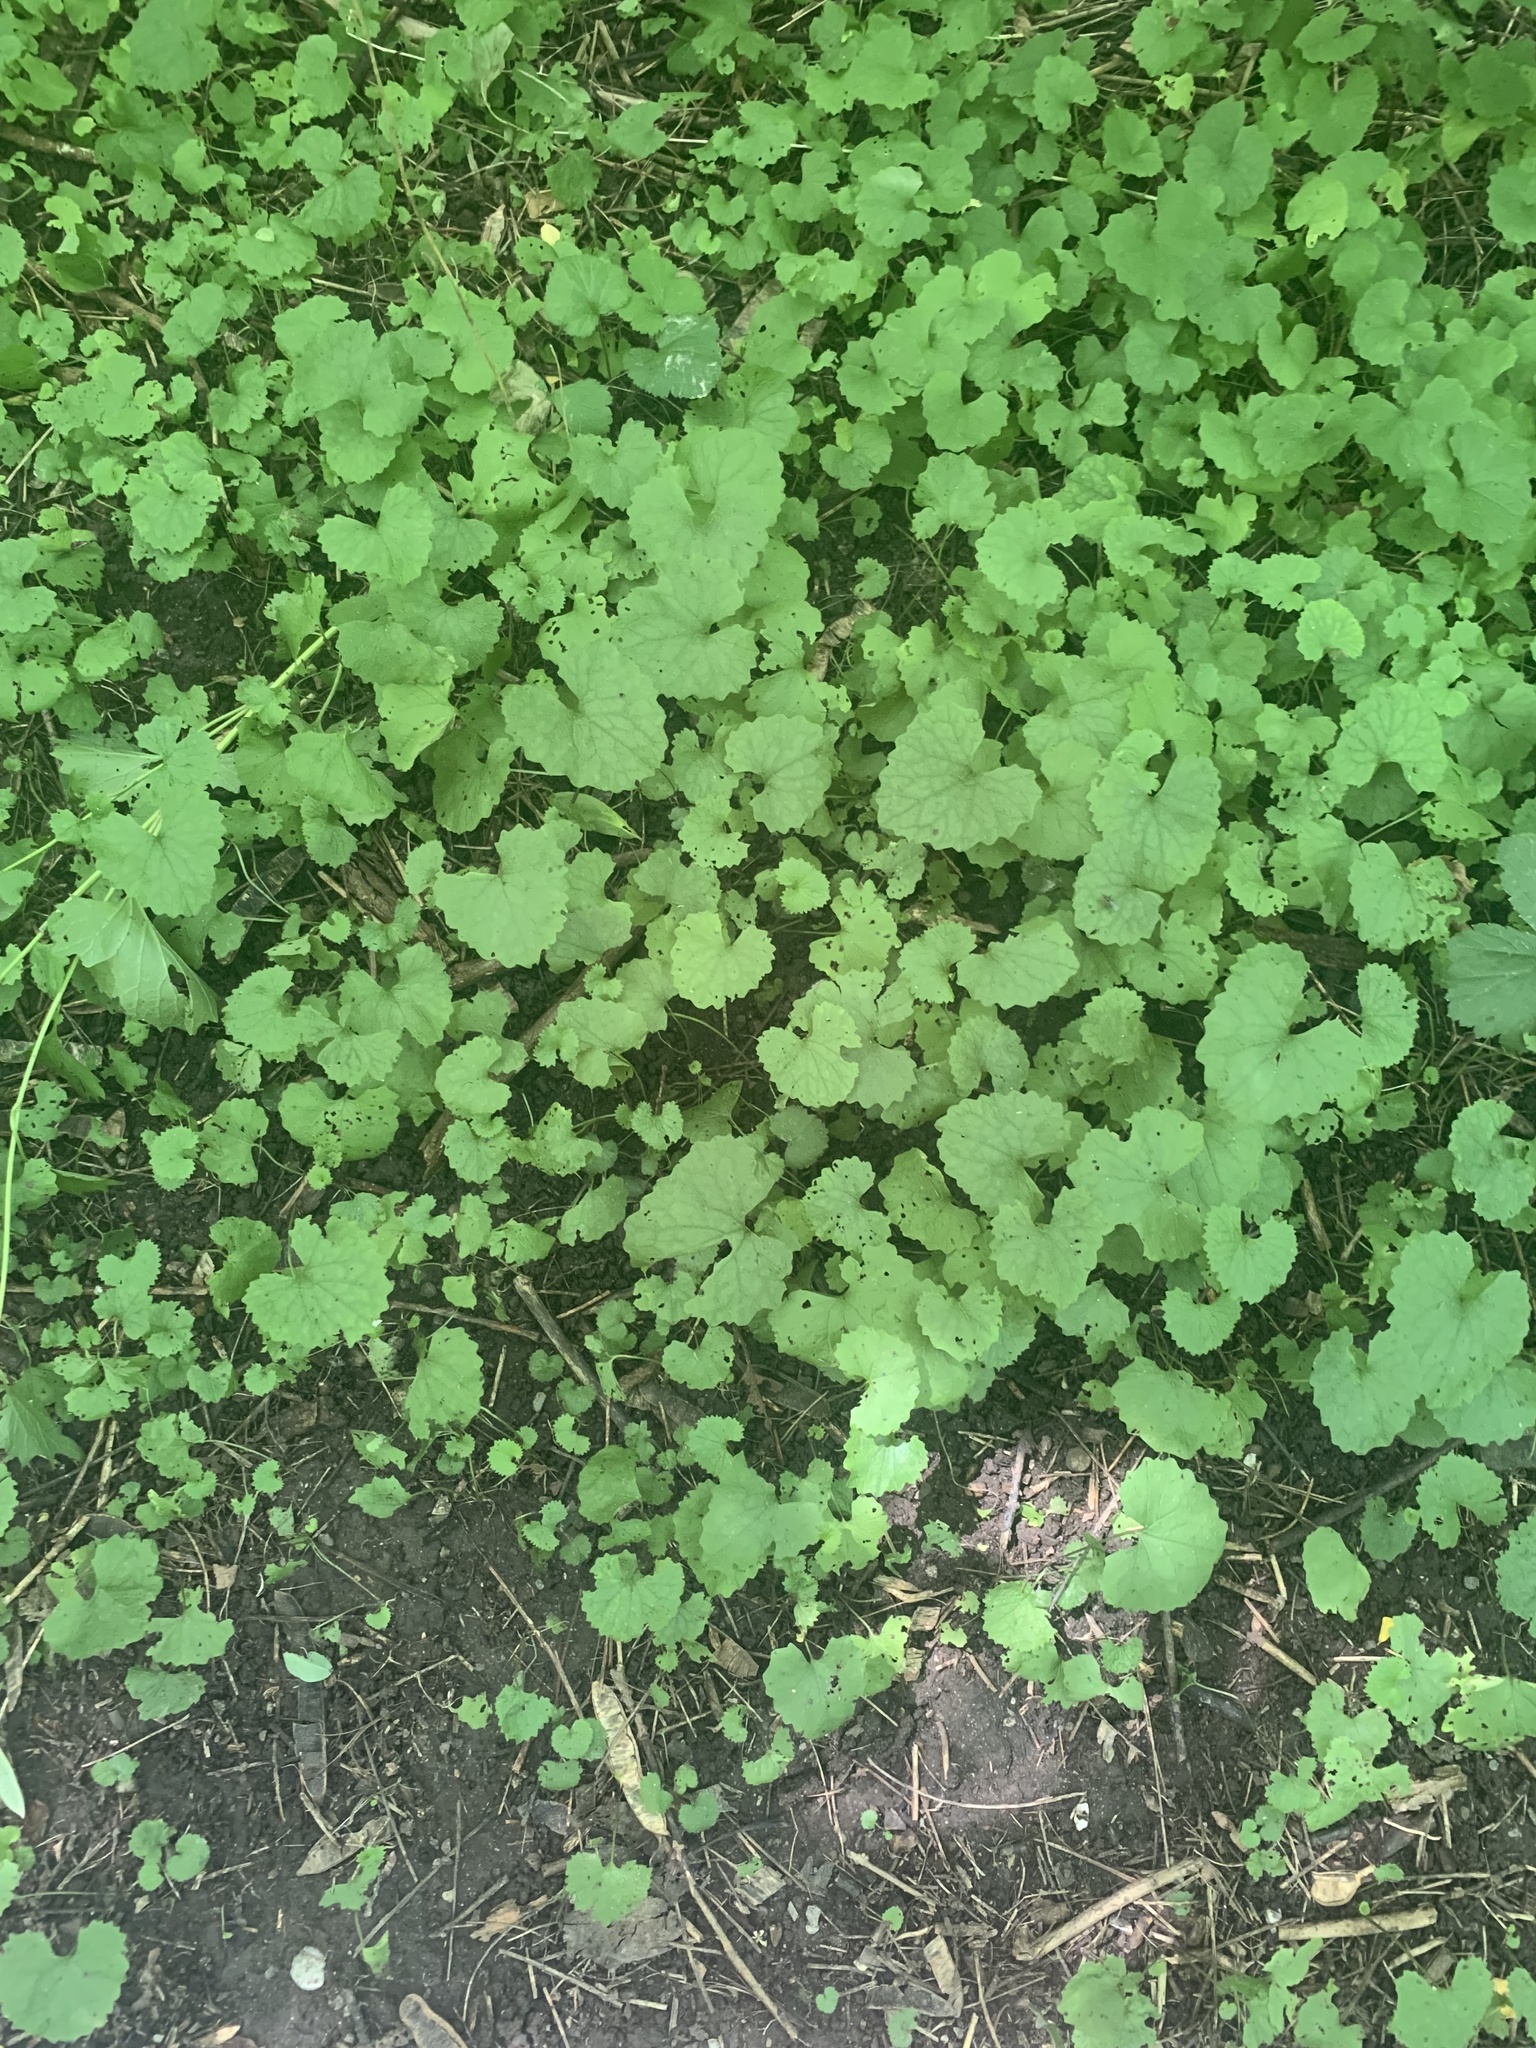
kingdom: Plantae
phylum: Tracheophyta
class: Magnoliopsida
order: Brassicales
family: Brassicaceae
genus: Alliaria
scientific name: Alliaria petiolata
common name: Garlic mustard
